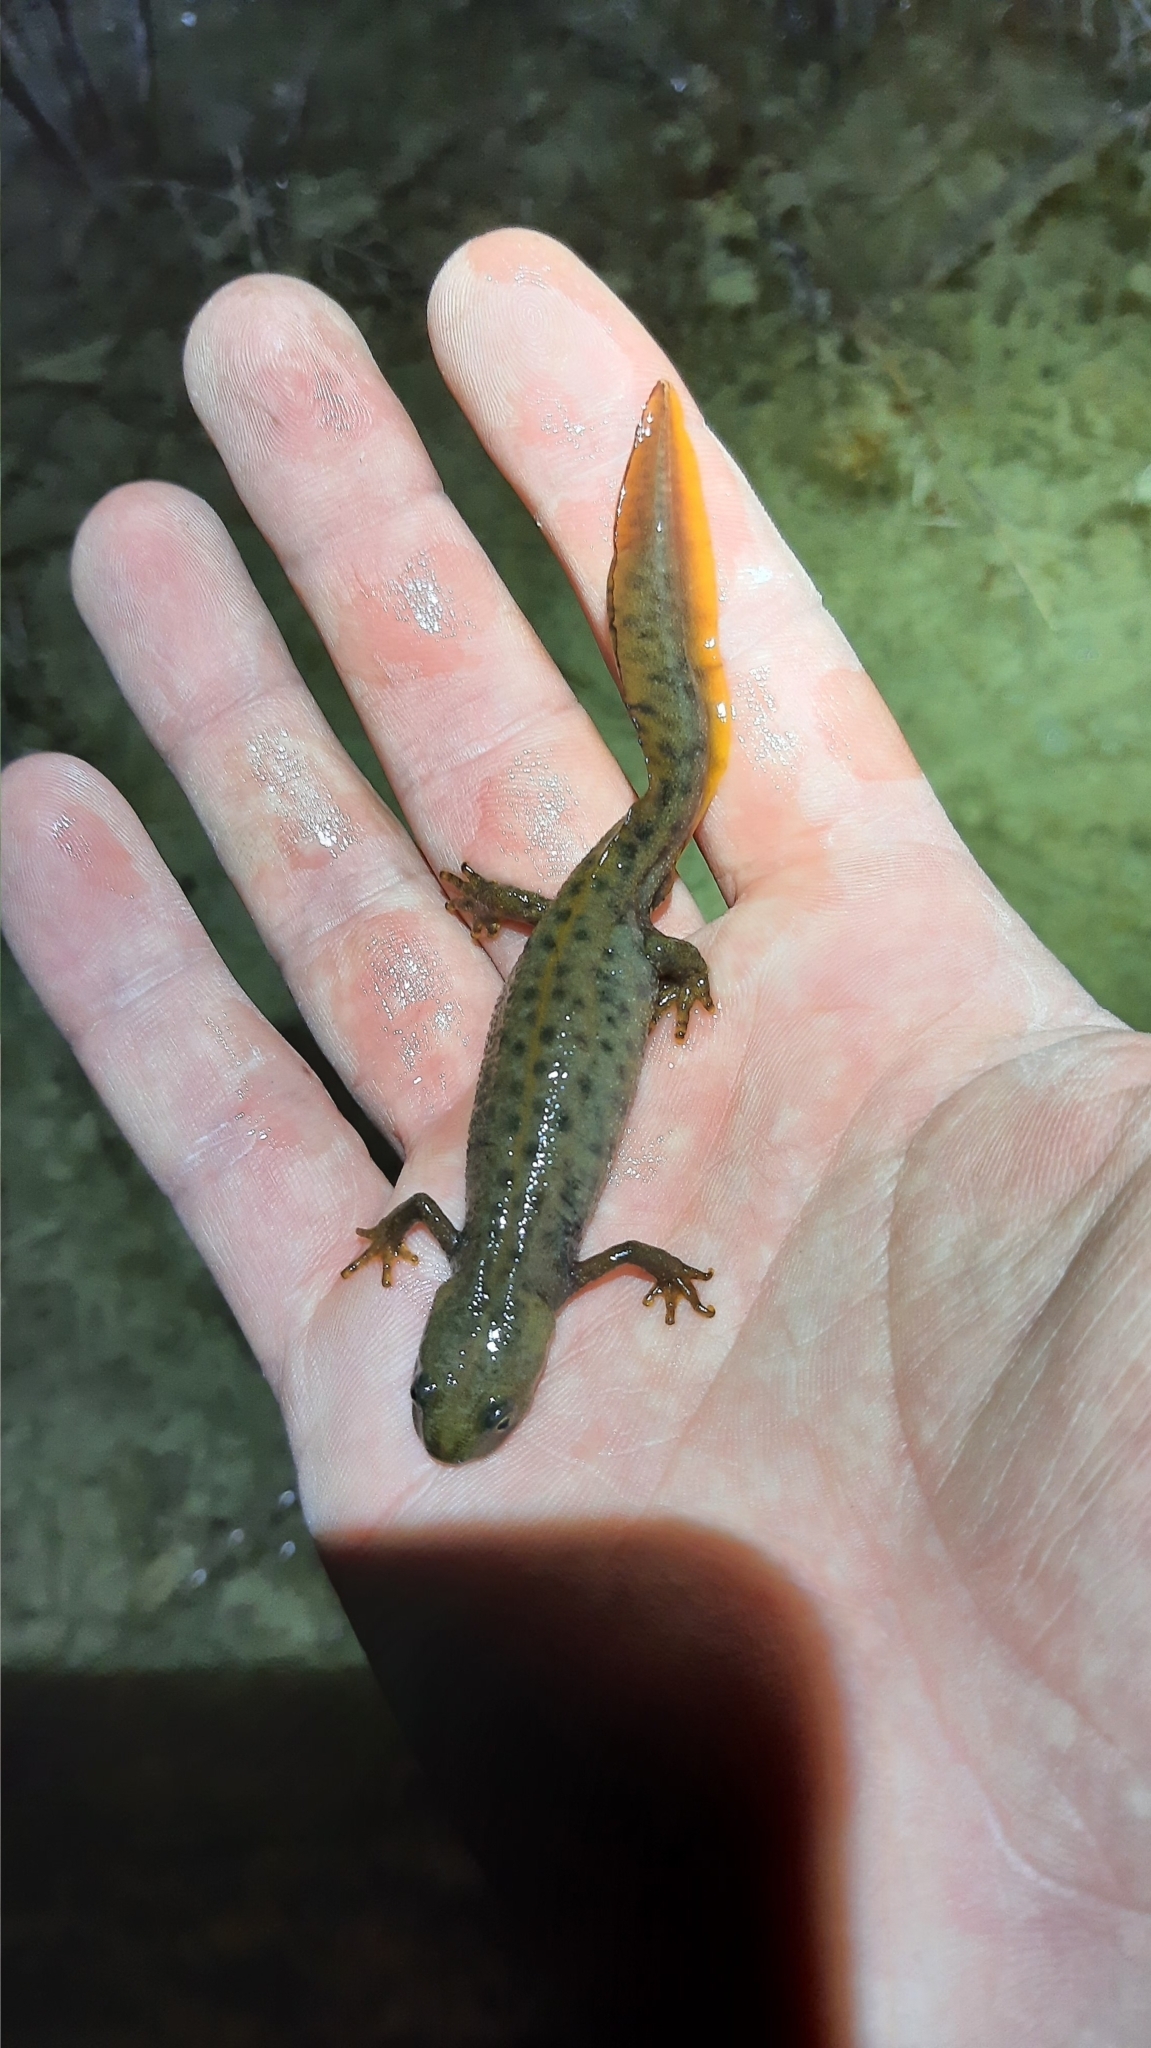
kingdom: Animalia
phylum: Chordata
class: Amphibia
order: Caudata
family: Salamandridae
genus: Triturus
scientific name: Triturus cristatus
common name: Crested newt
